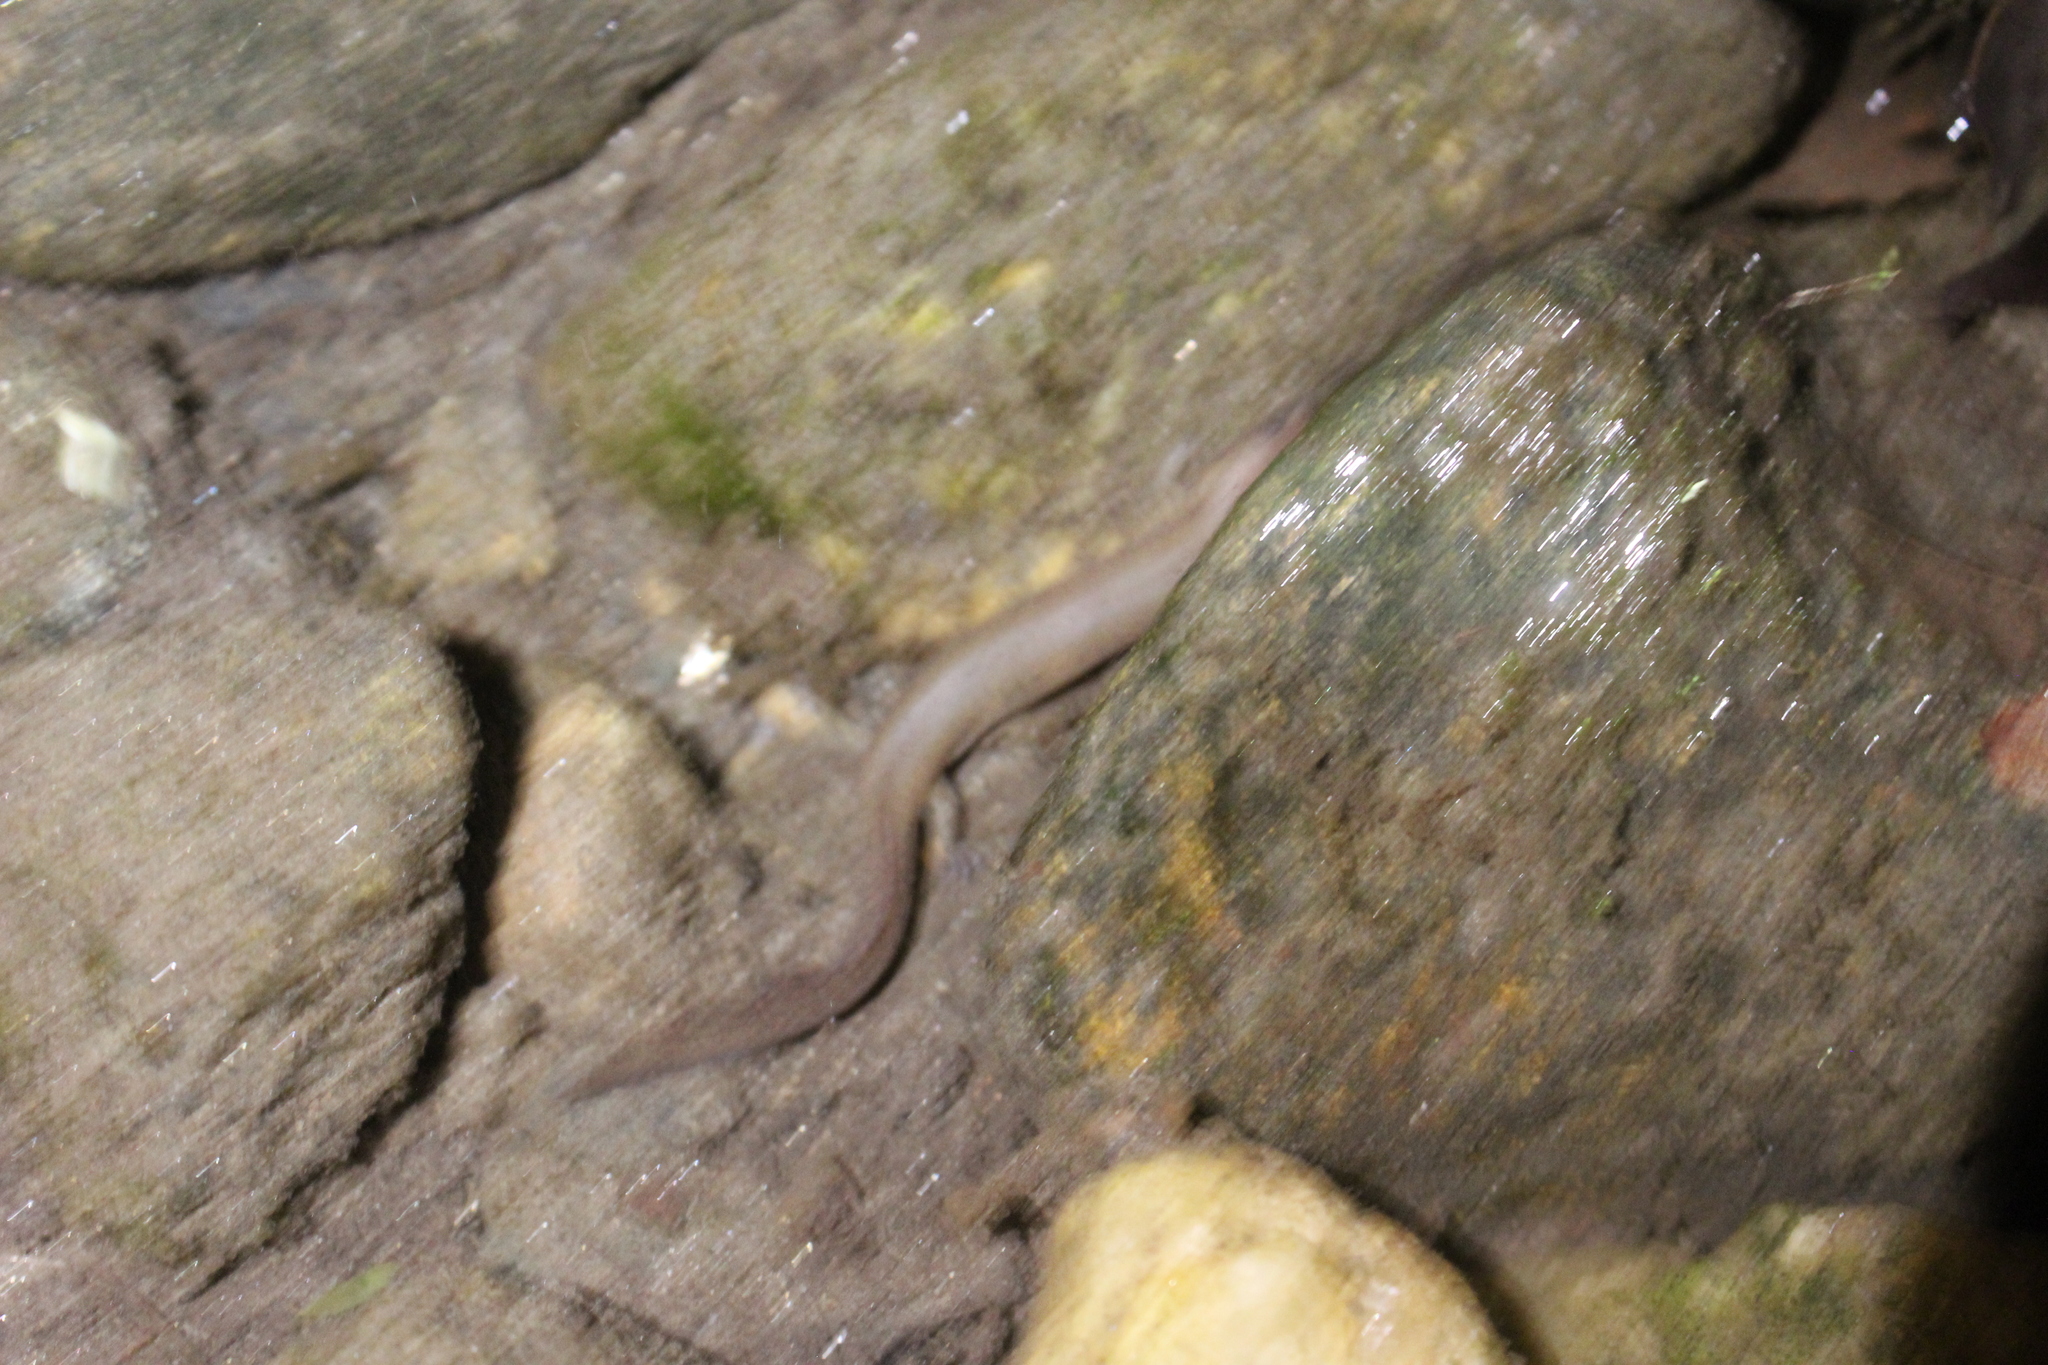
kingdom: Animalia
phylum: Chordata
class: Amphibia
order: Caudata
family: Plethodontidae
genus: Gyrinophilus
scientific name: Gyrinophilus porphyriticus
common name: Spring salamander
